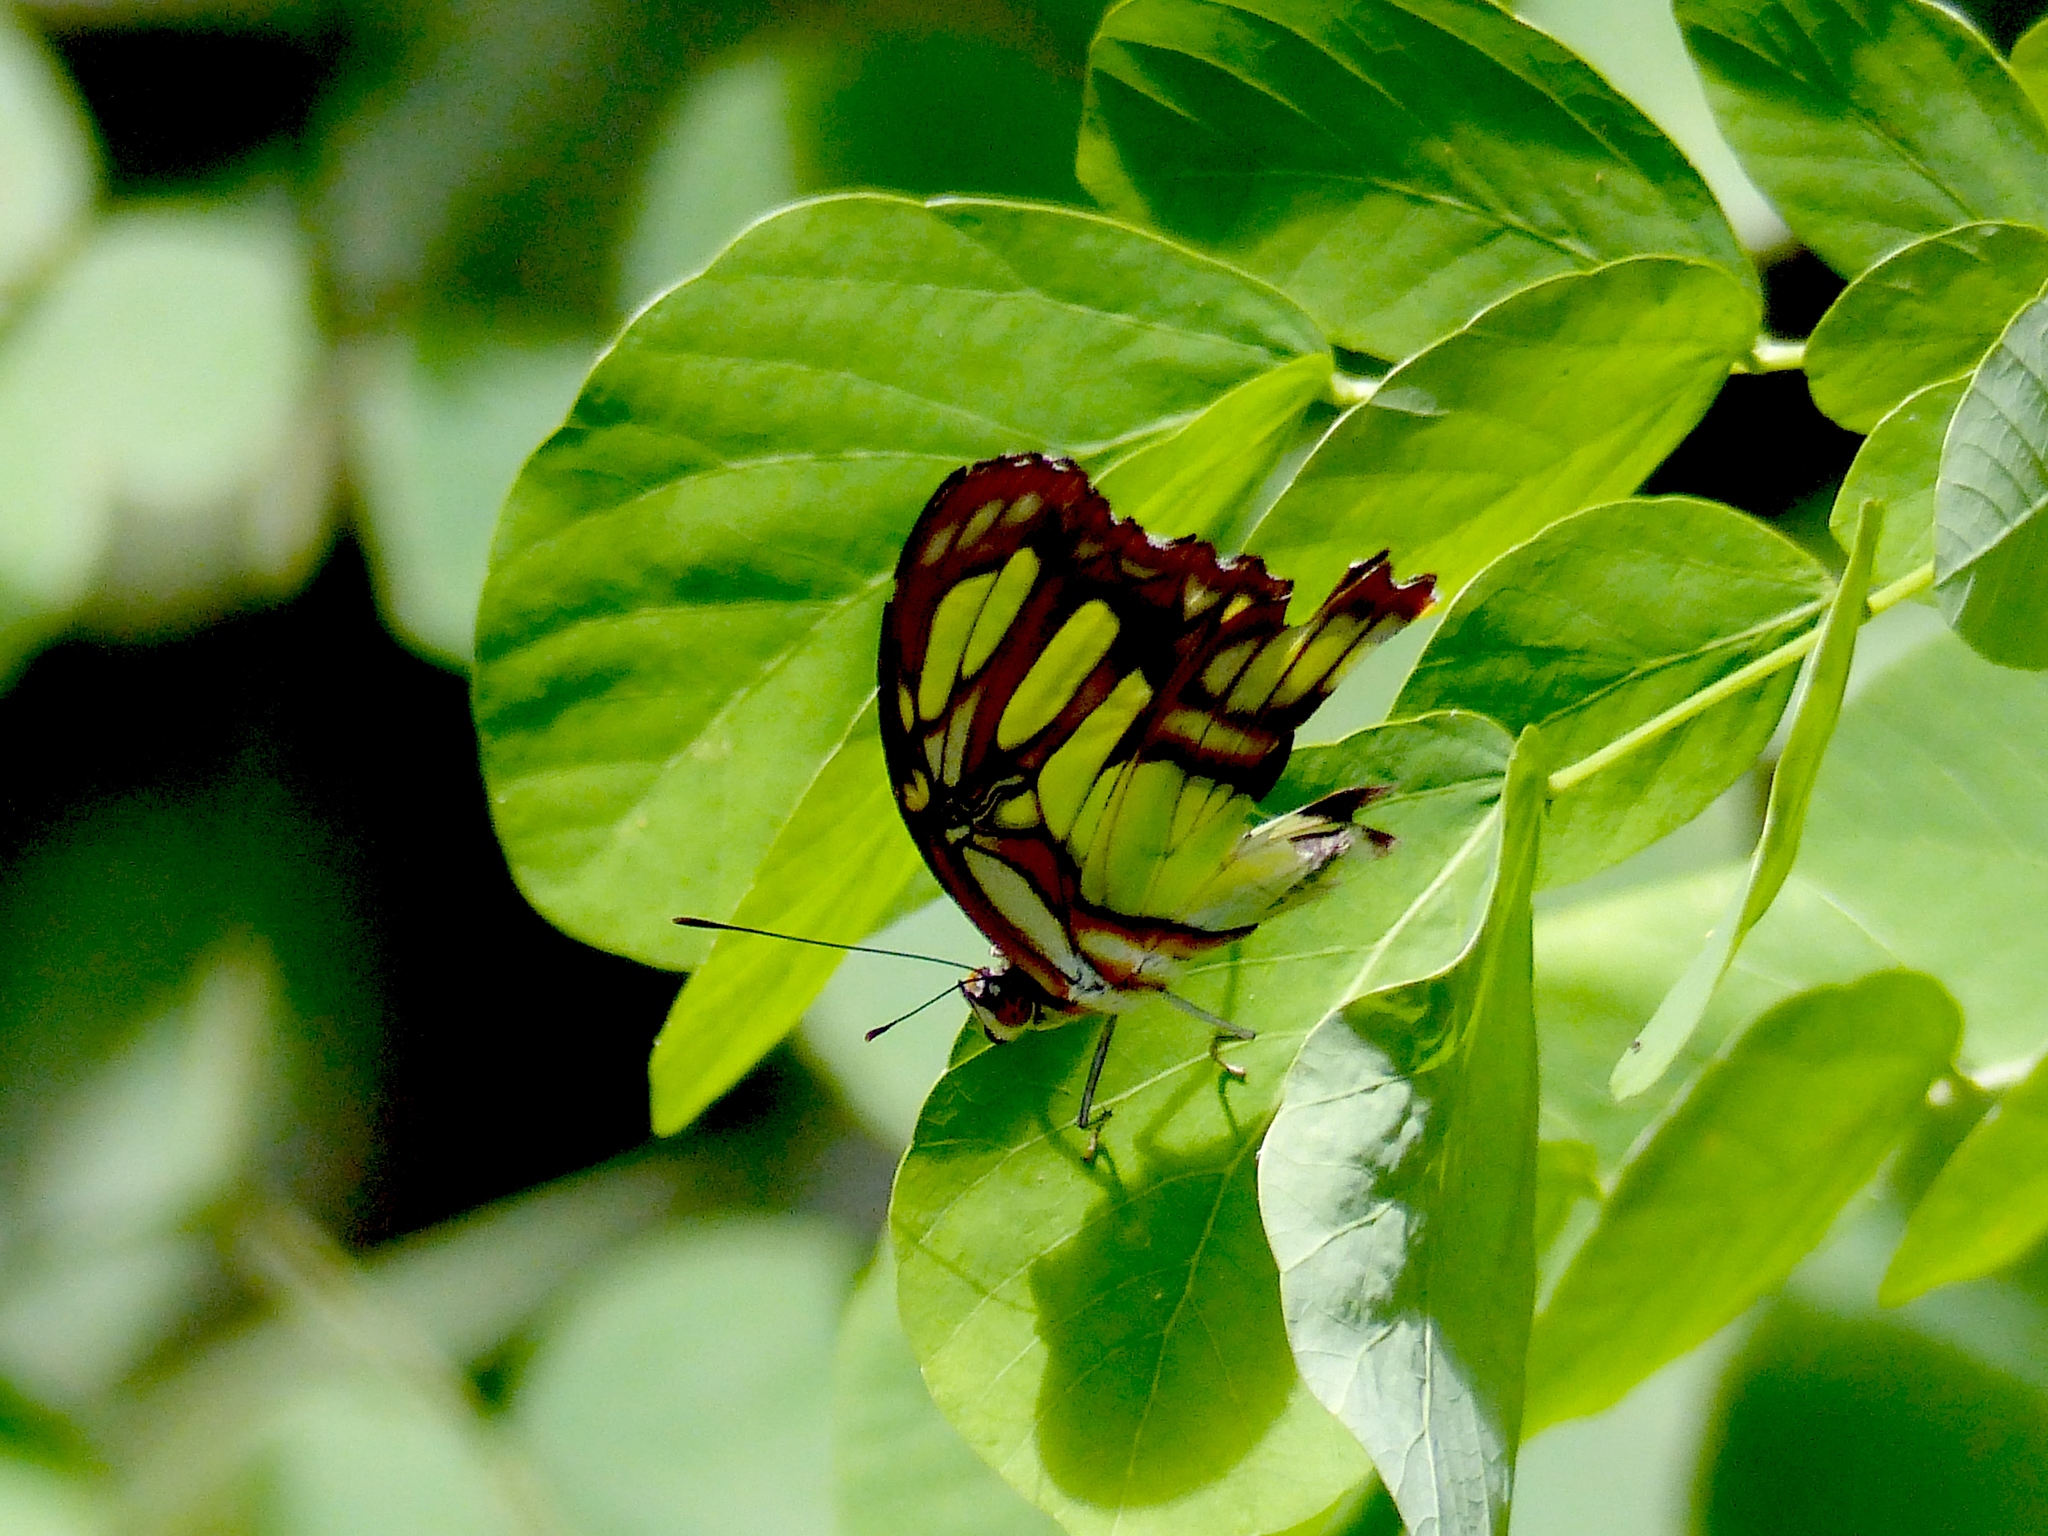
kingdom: Animalia
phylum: Arthropoda
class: Insecta
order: Lepidoptera
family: Nymphalidae
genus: Siproeta
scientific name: Siproeta stelenes
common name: Malachite
